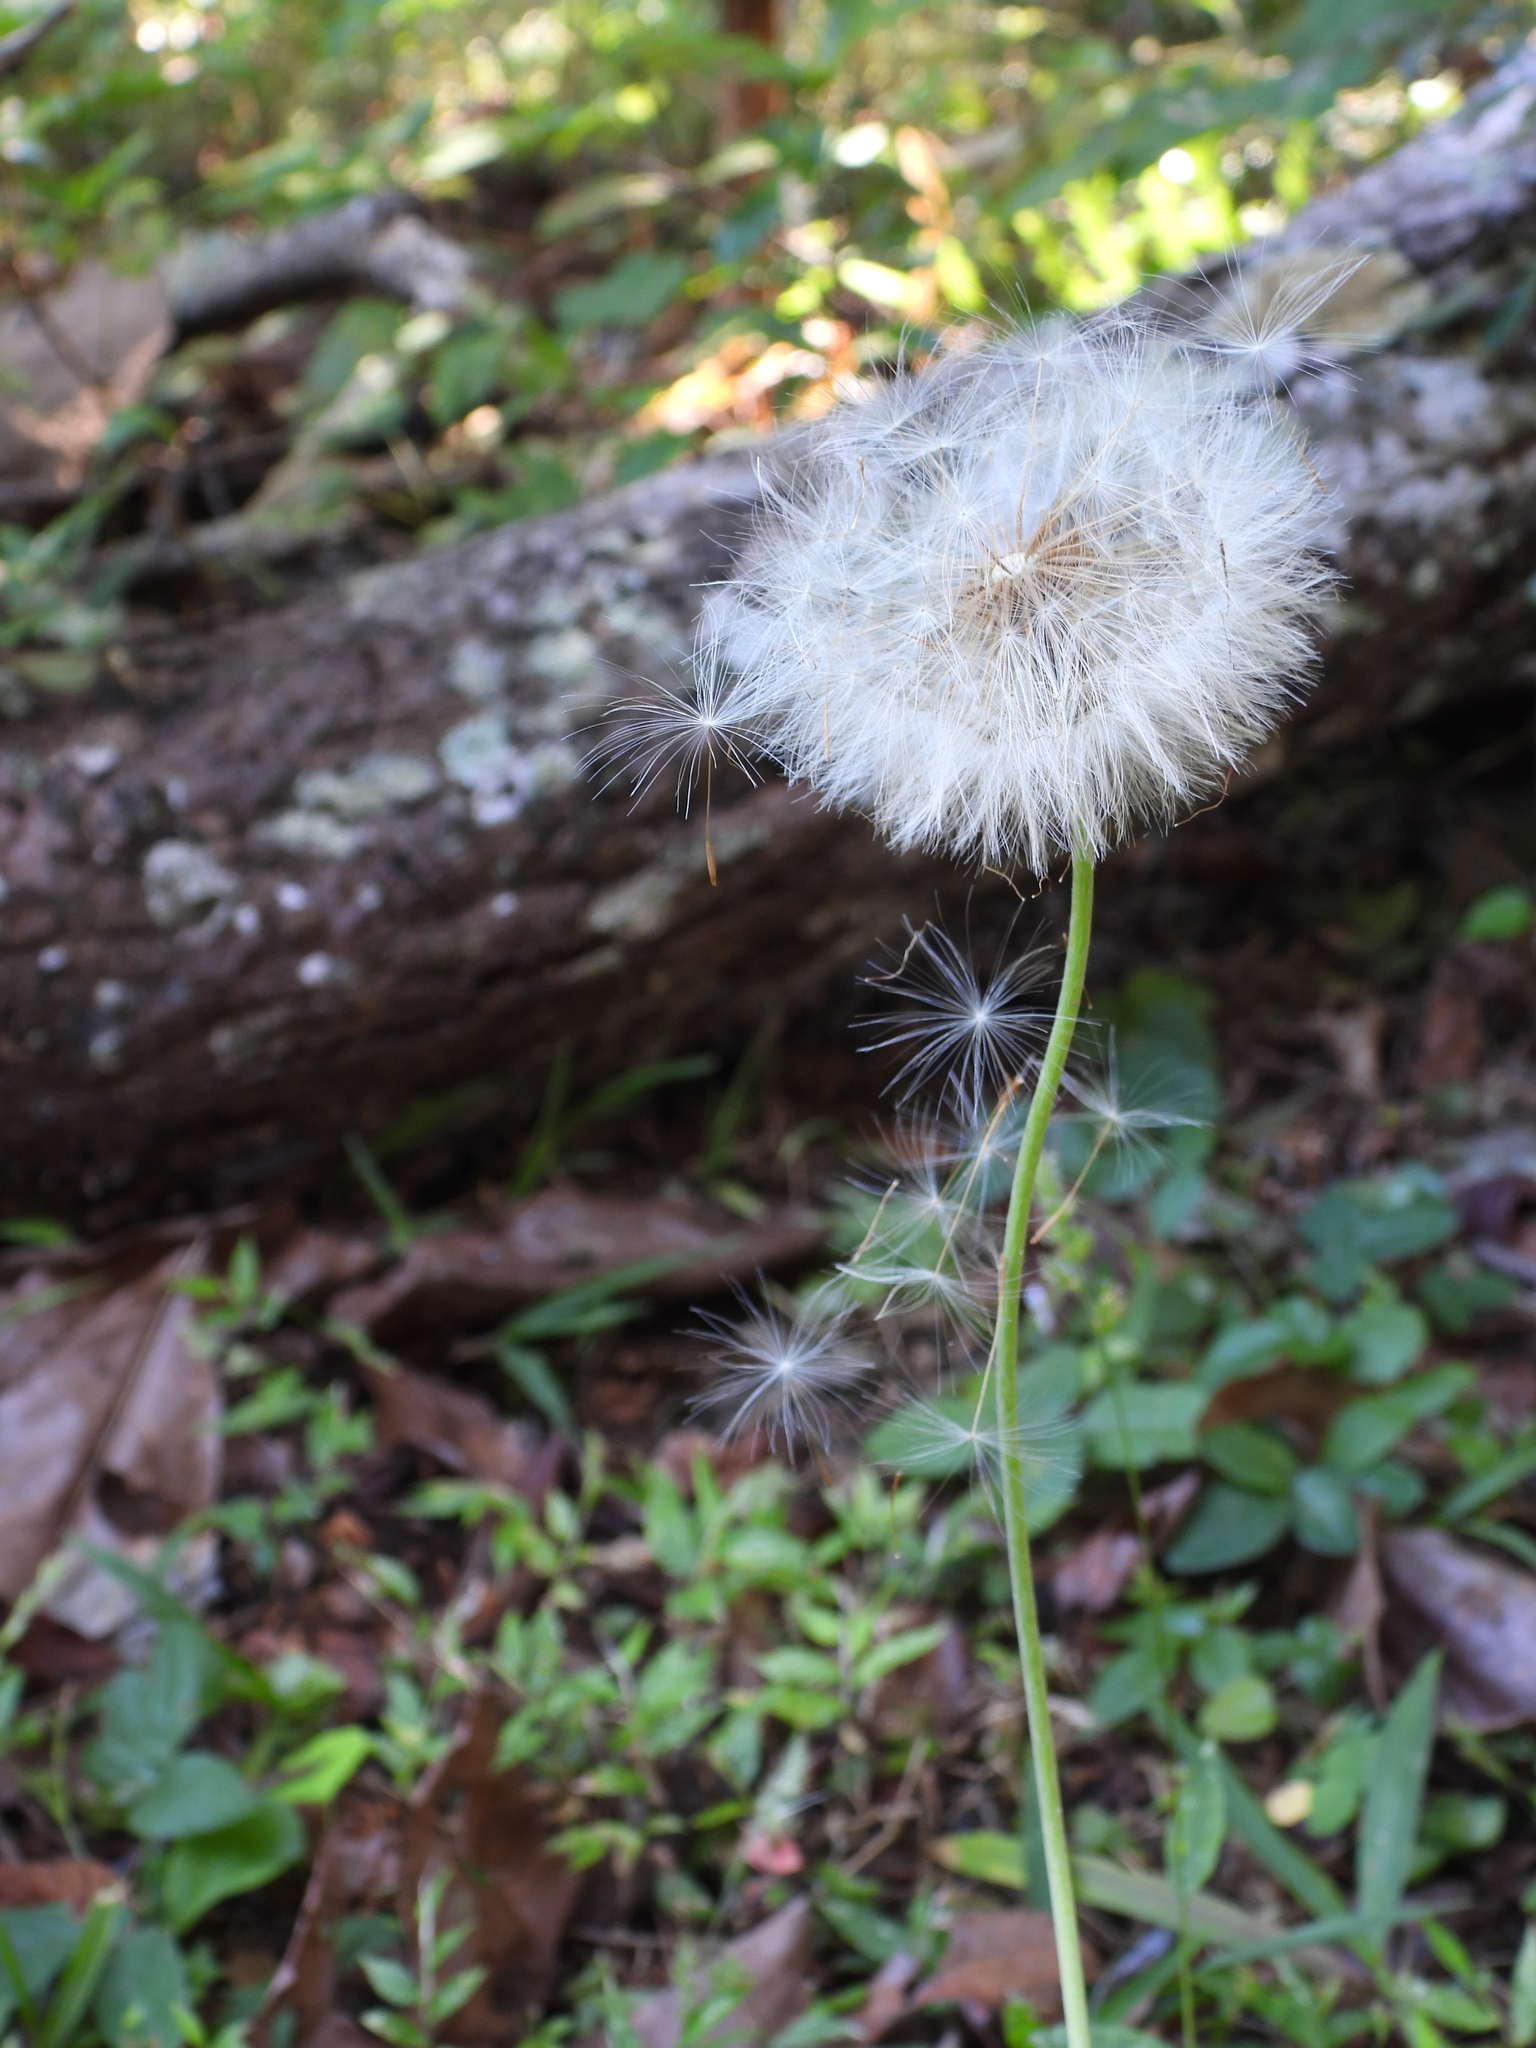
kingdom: Plantae
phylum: Tracheophyta
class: Magnoliopsida
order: Asterales
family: Asteraceae
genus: Taraxacum
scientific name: Taraxacum officinale
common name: Common dandelion
